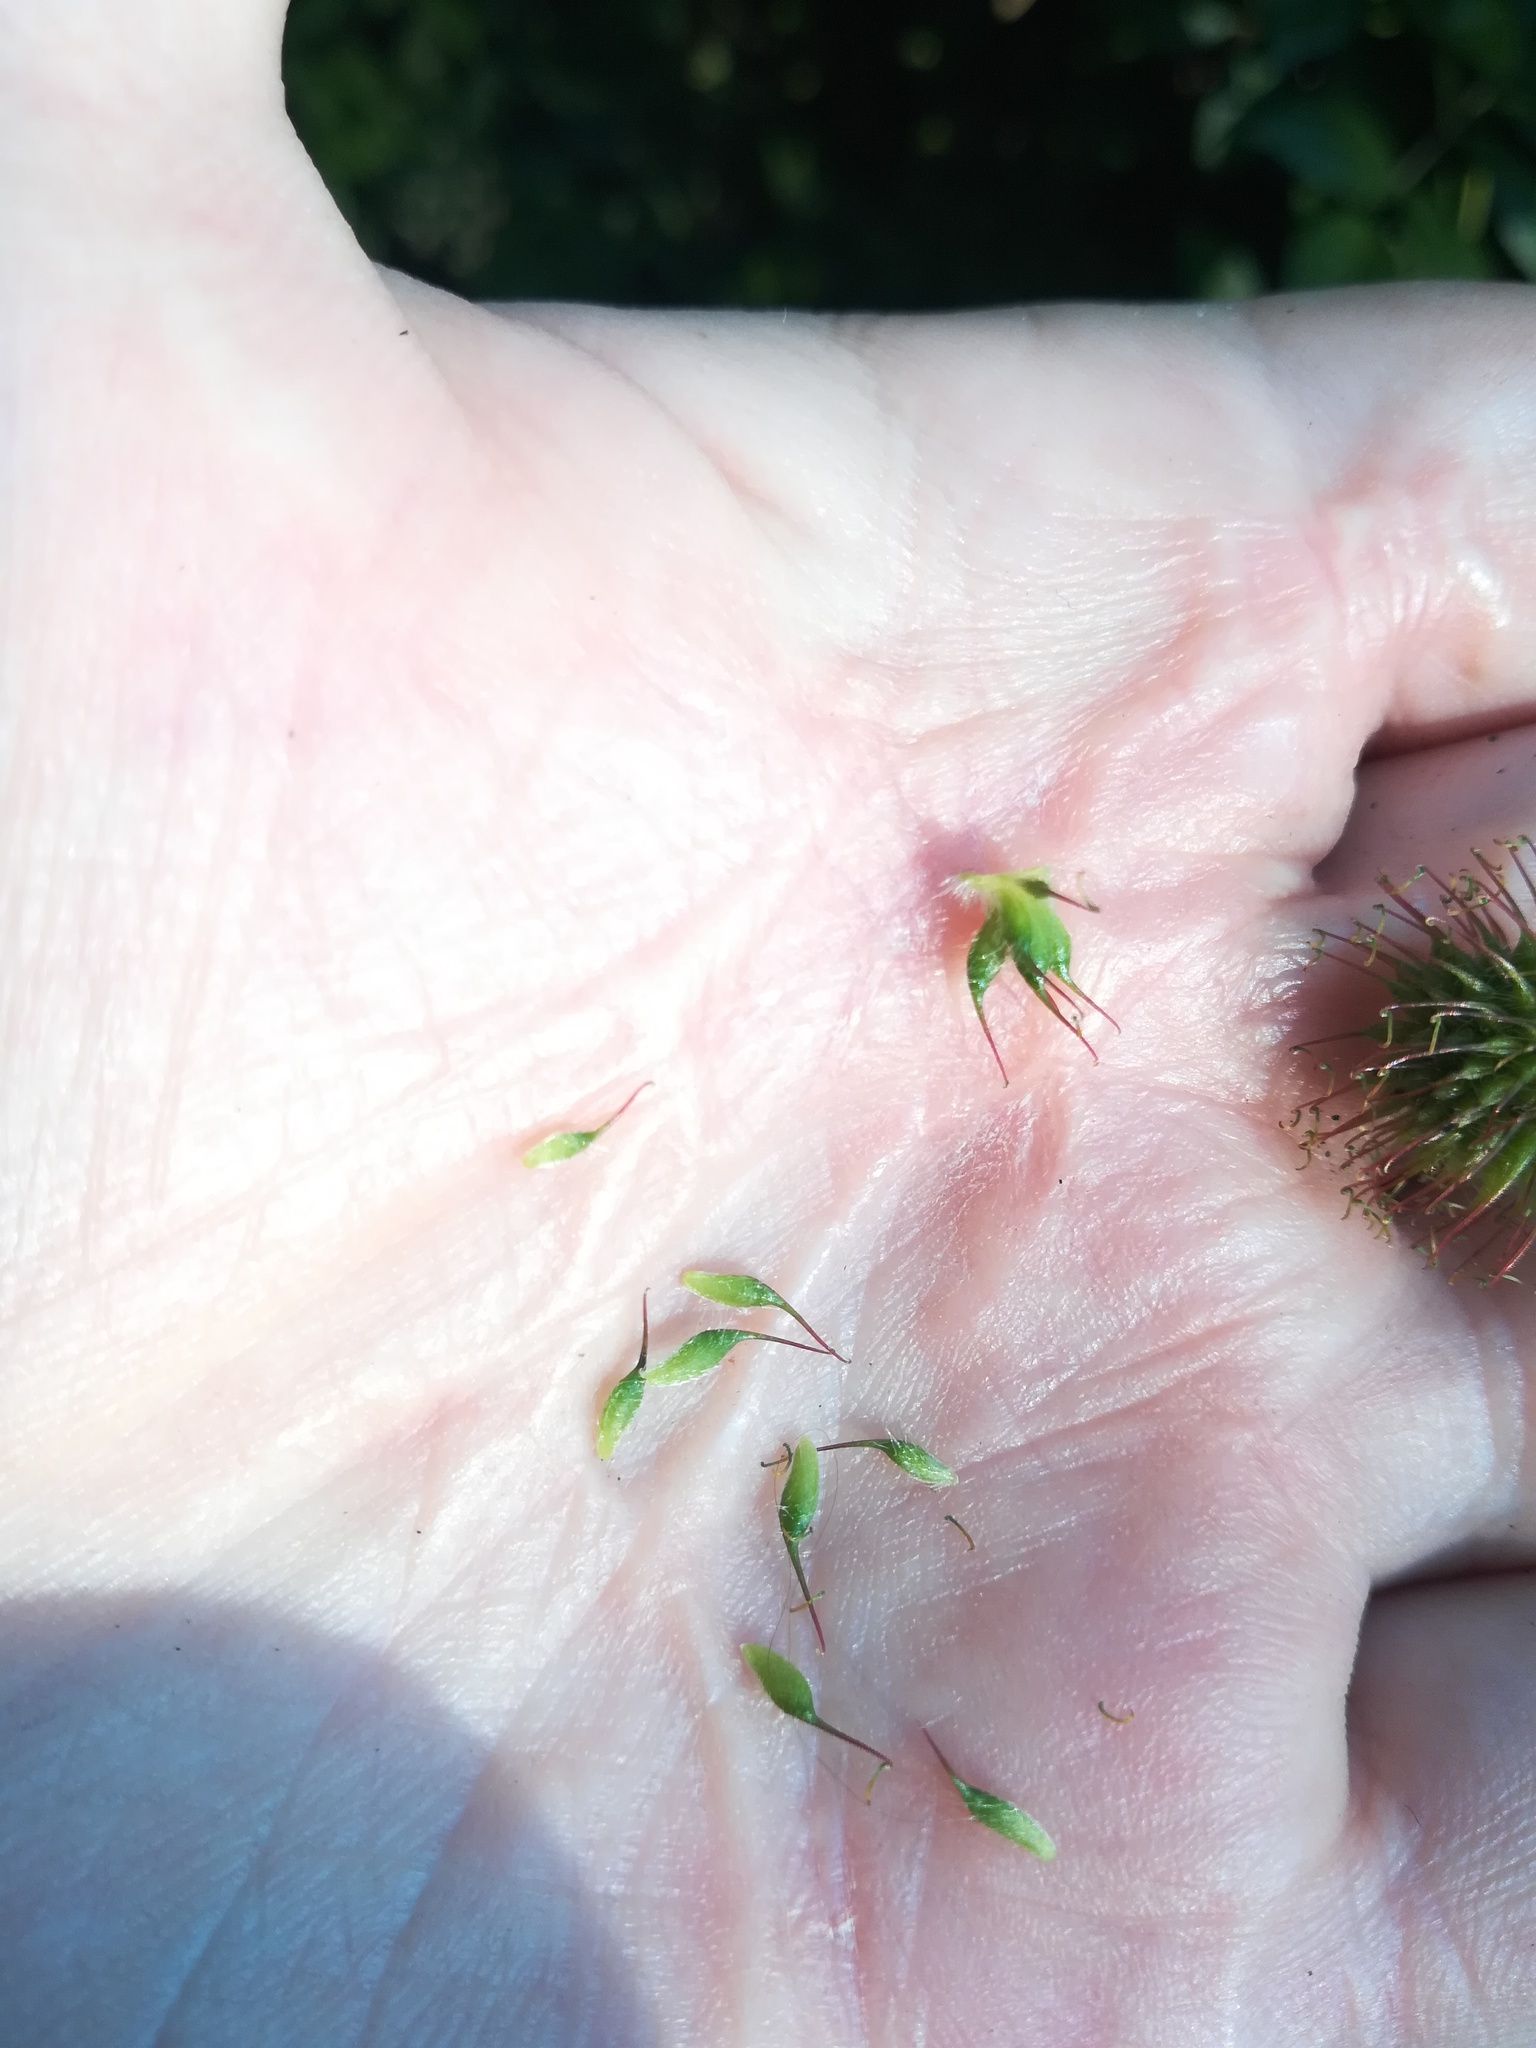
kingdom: Plantae
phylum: Tracheophyta
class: Magnoliopsida
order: Rosales
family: Rosaceae
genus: Geum
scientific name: Geum urbanum
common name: Wood avens
